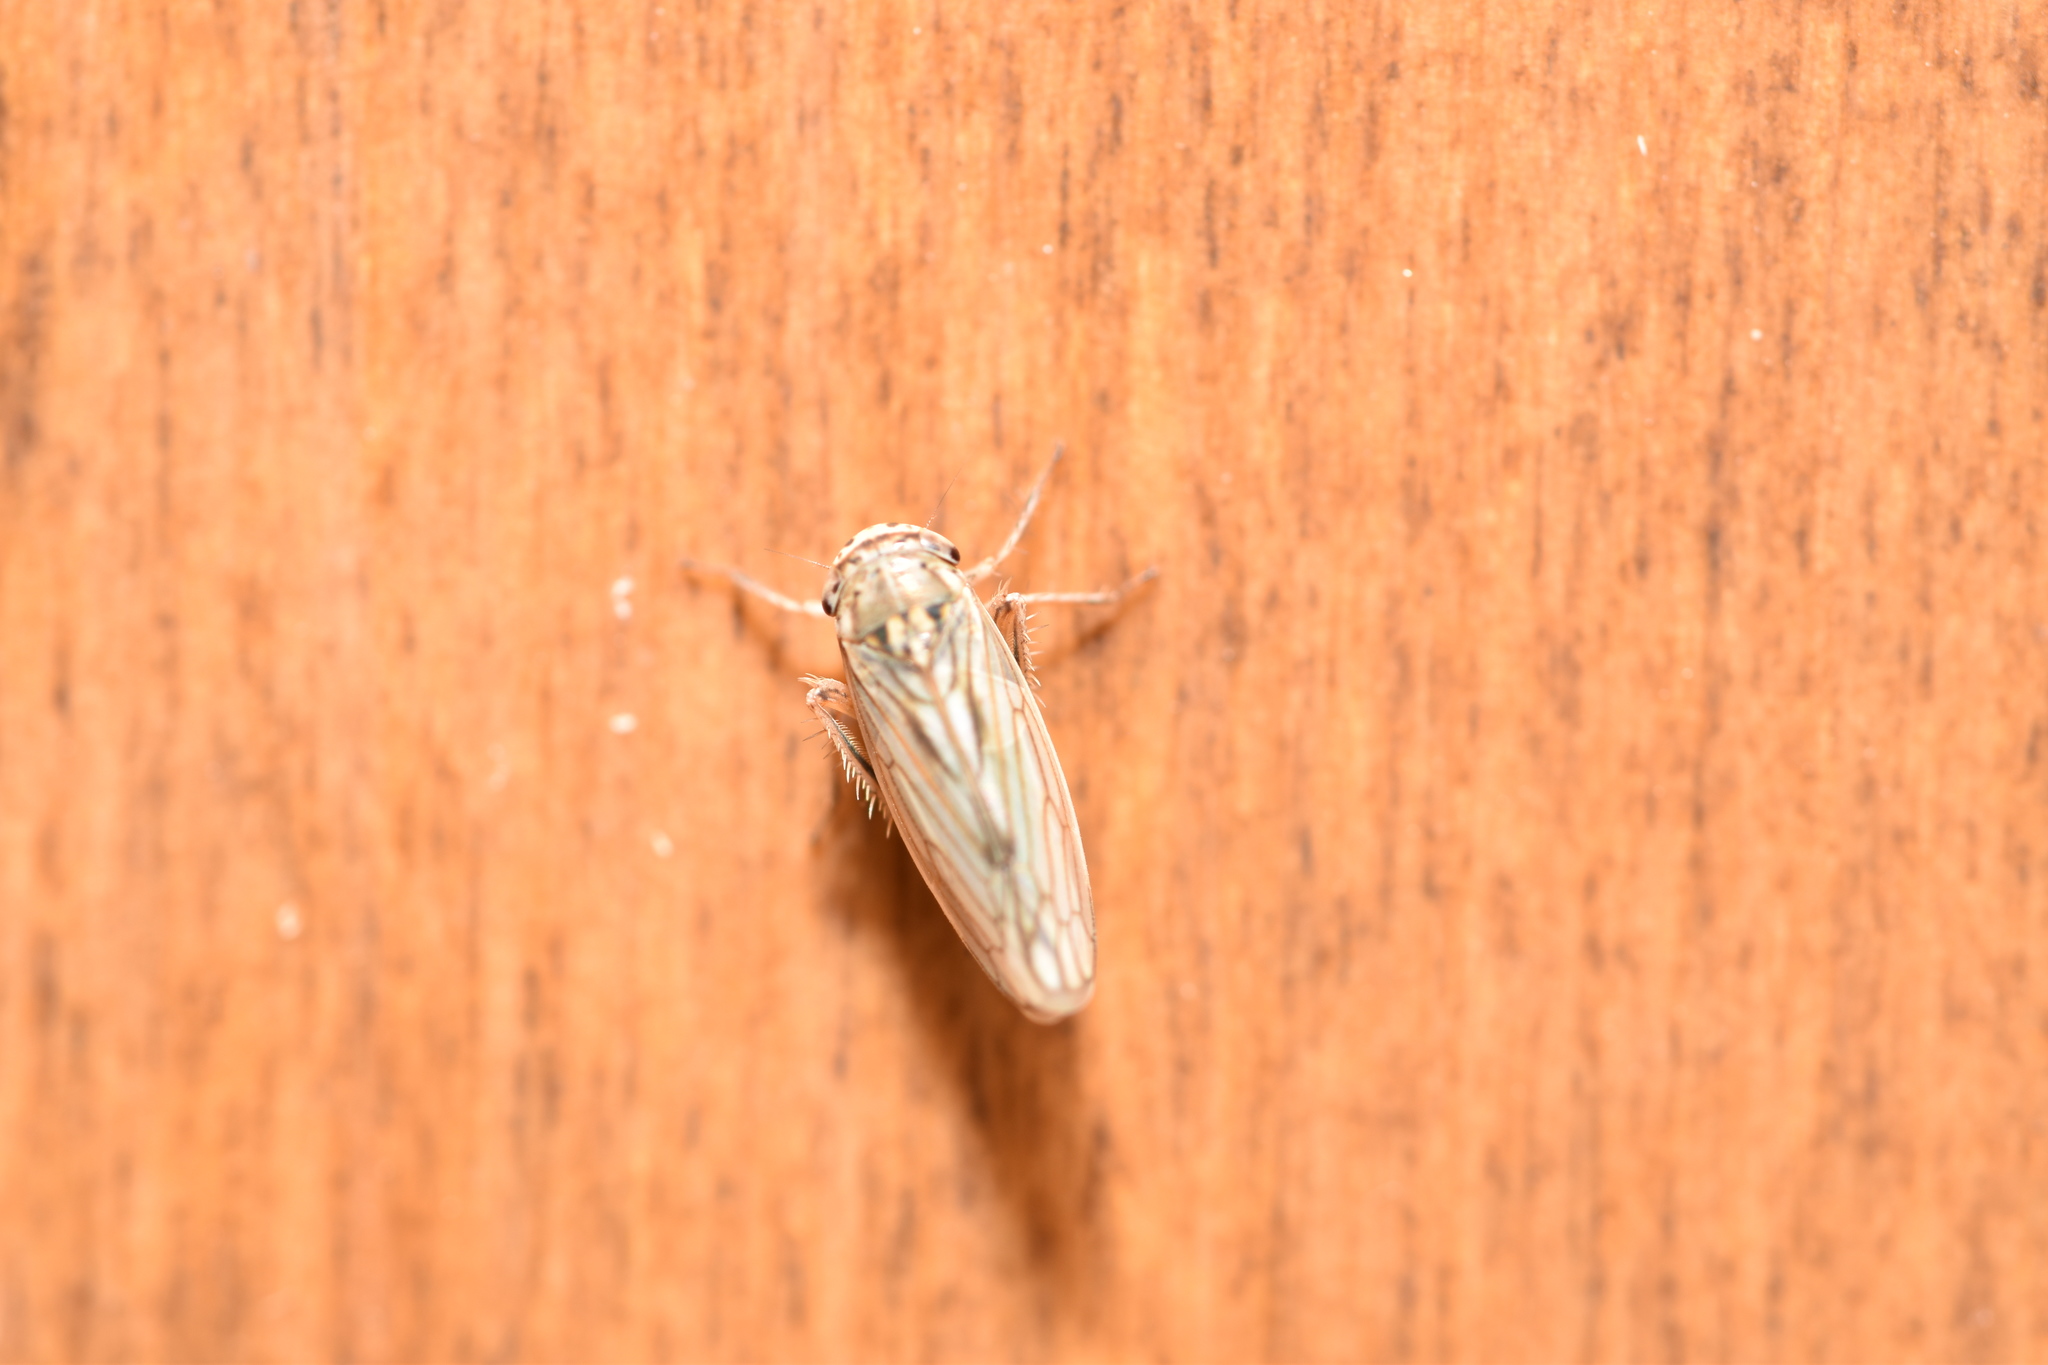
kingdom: Animalia
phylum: Arthropoda
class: Insecta
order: Hemiptera
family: Cicadellidae
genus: Exitianus
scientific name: Exitianus exitiosus
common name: Gray lawn leafhopper
